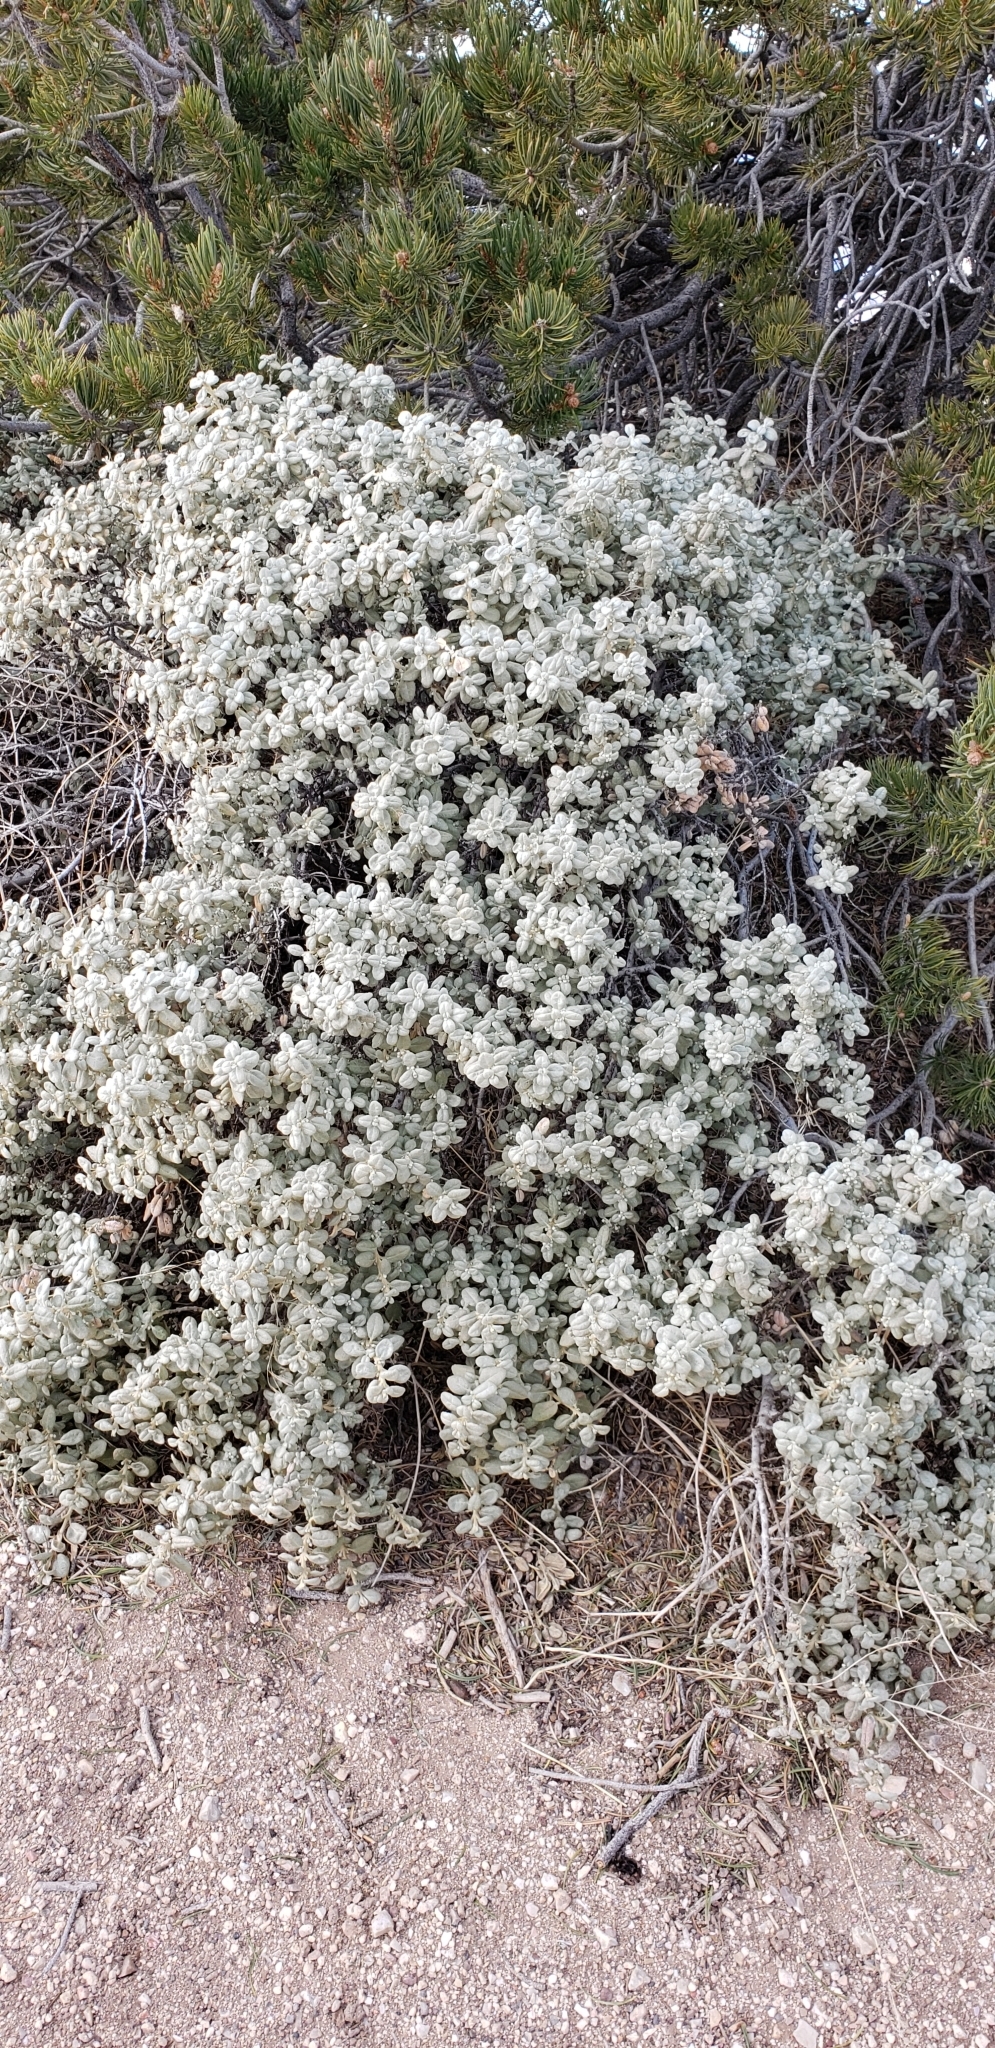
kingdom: Plantae
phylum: Tracheophyta
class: Magnoliopsida
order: Rosales
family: Elaeagnaceae
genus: Shepherdia
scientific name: Shepherdia rotundifolia
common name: Silverscale
